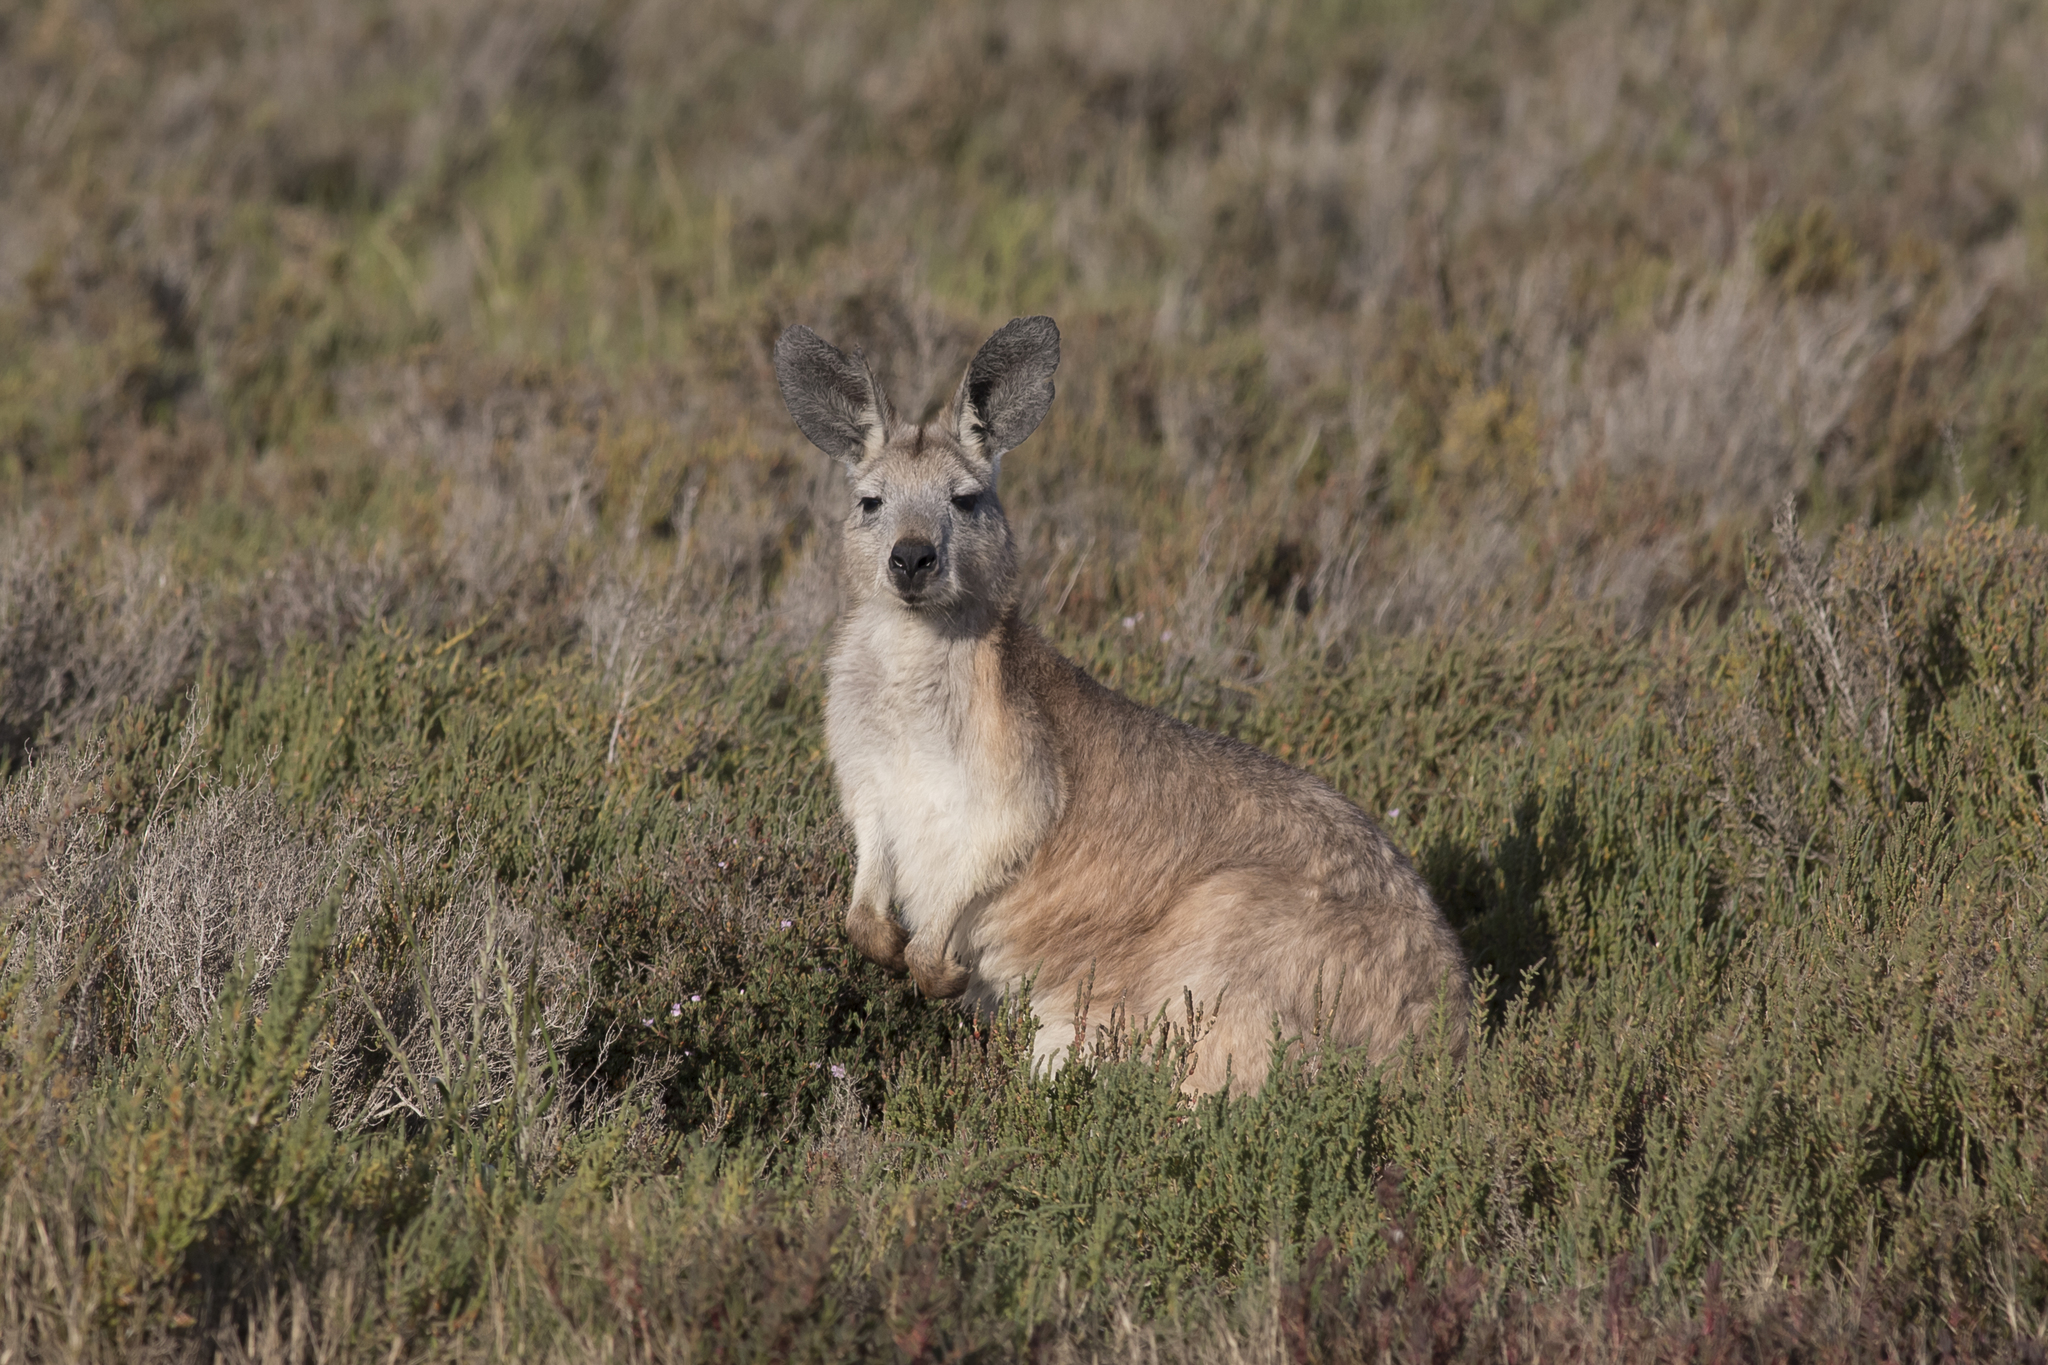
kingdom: Animalia
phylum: Chordata
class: Mammalia
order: Diprotodontia
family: Macropodidae
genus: Macropus
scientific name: Macropus robustus
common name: Eastern wallaroo
